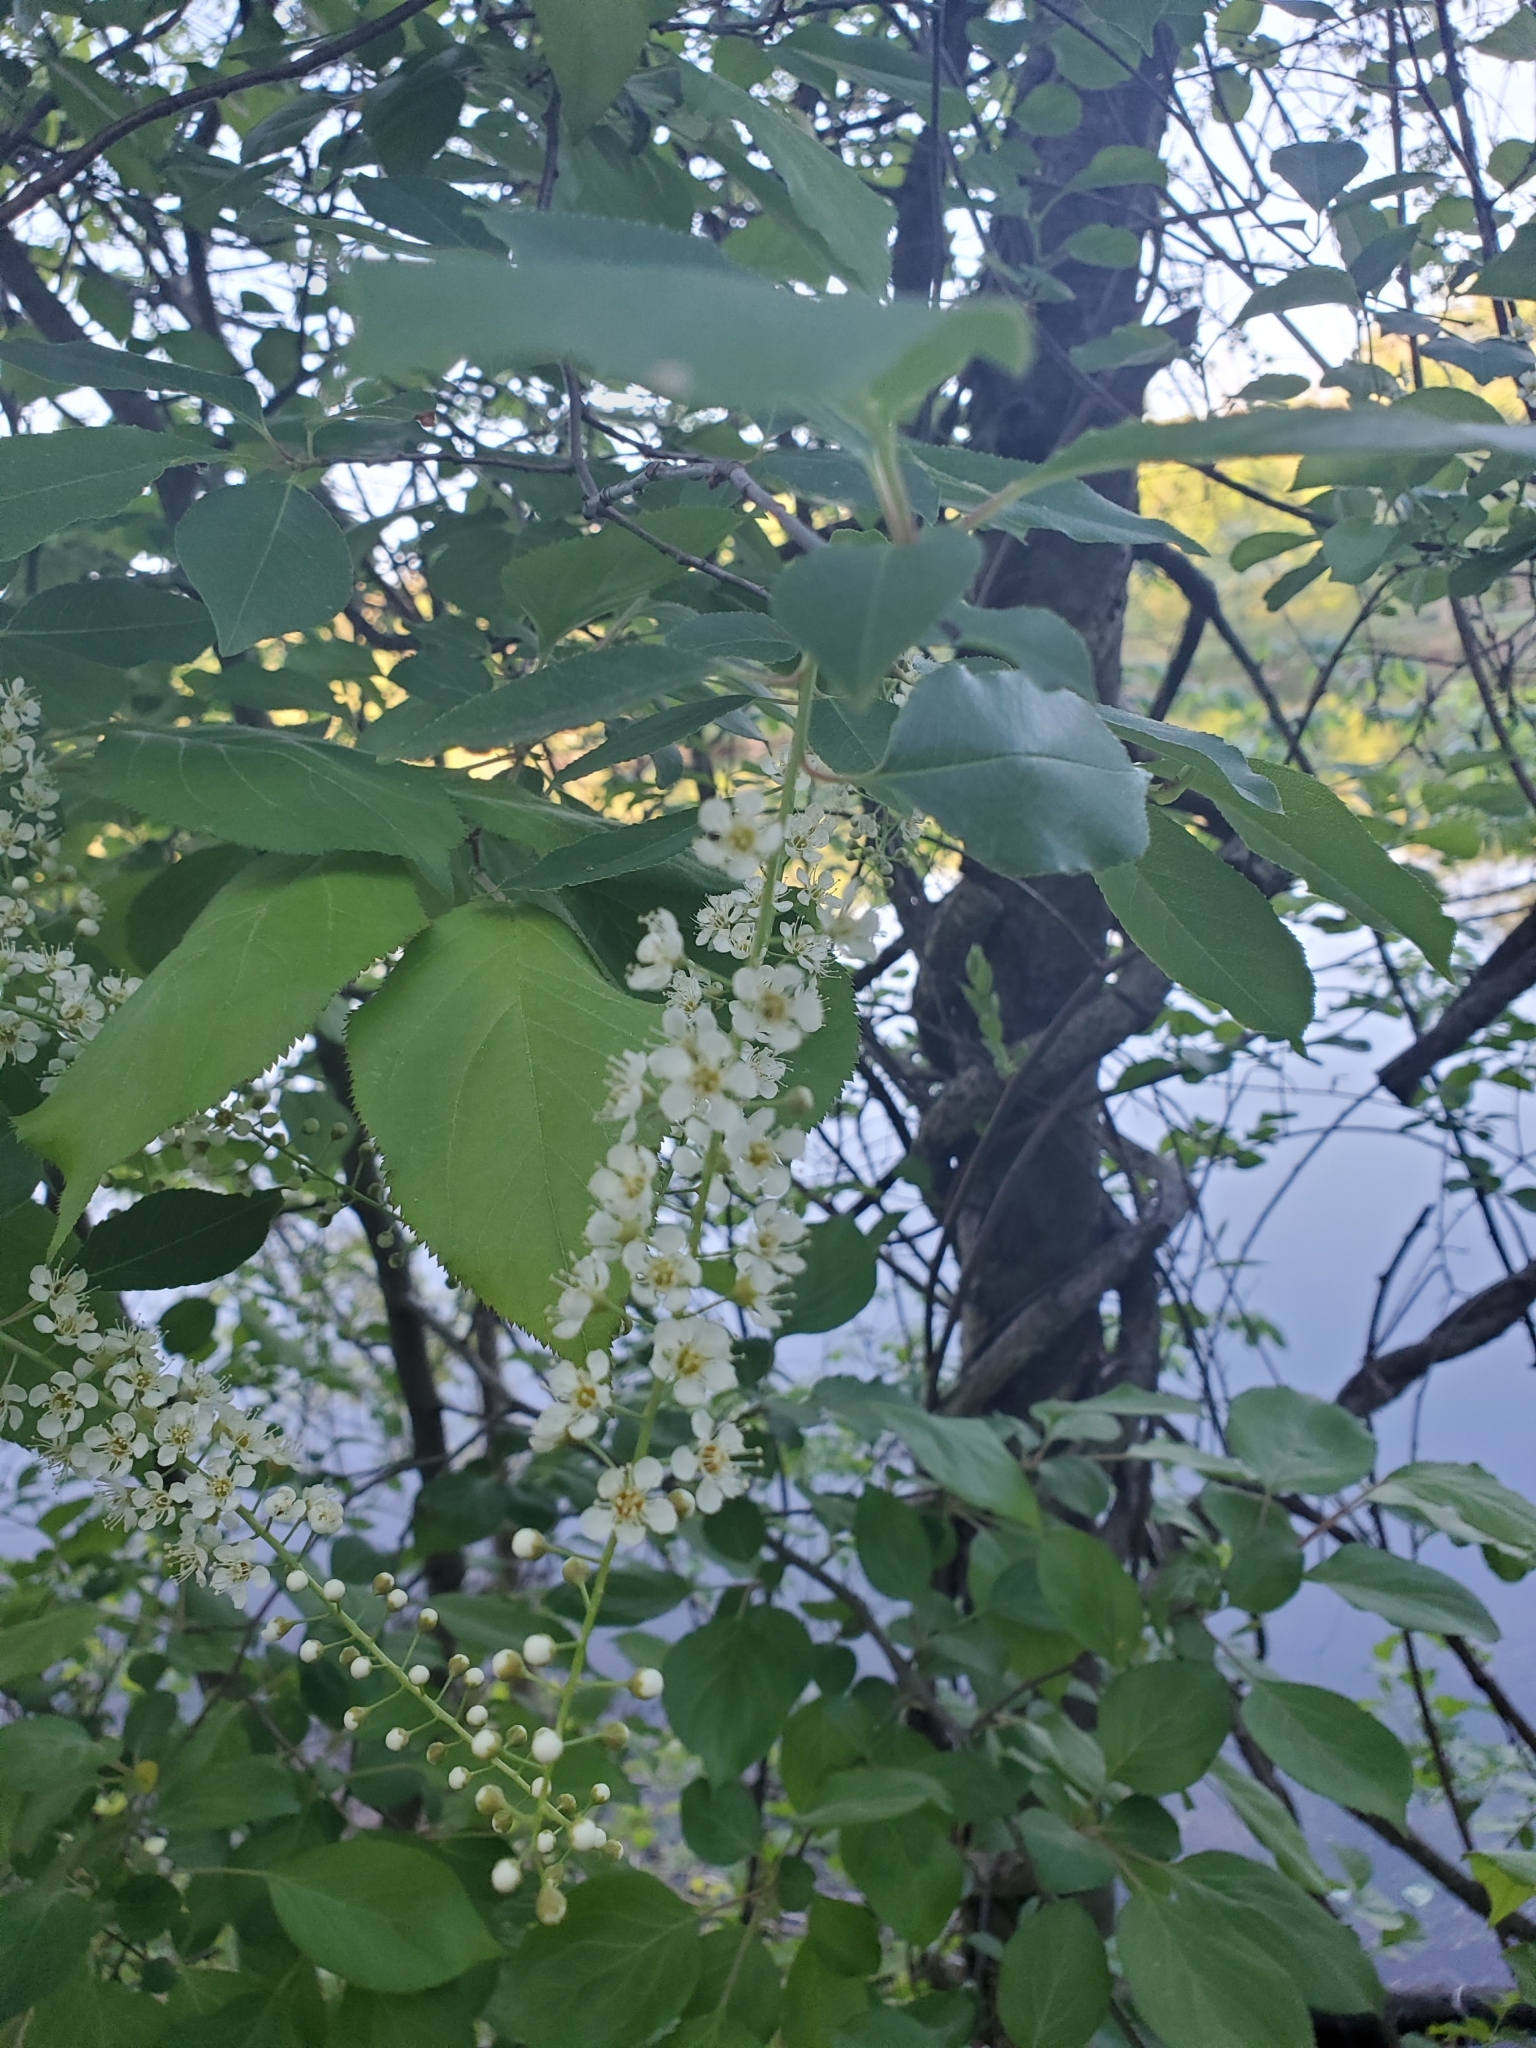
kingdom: Plantae
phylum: Tracheophyta
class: Magnoliopsida
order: Rosales
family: Rosaceae
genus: Prunus
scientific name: Prunus serotina
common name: Black cherry
